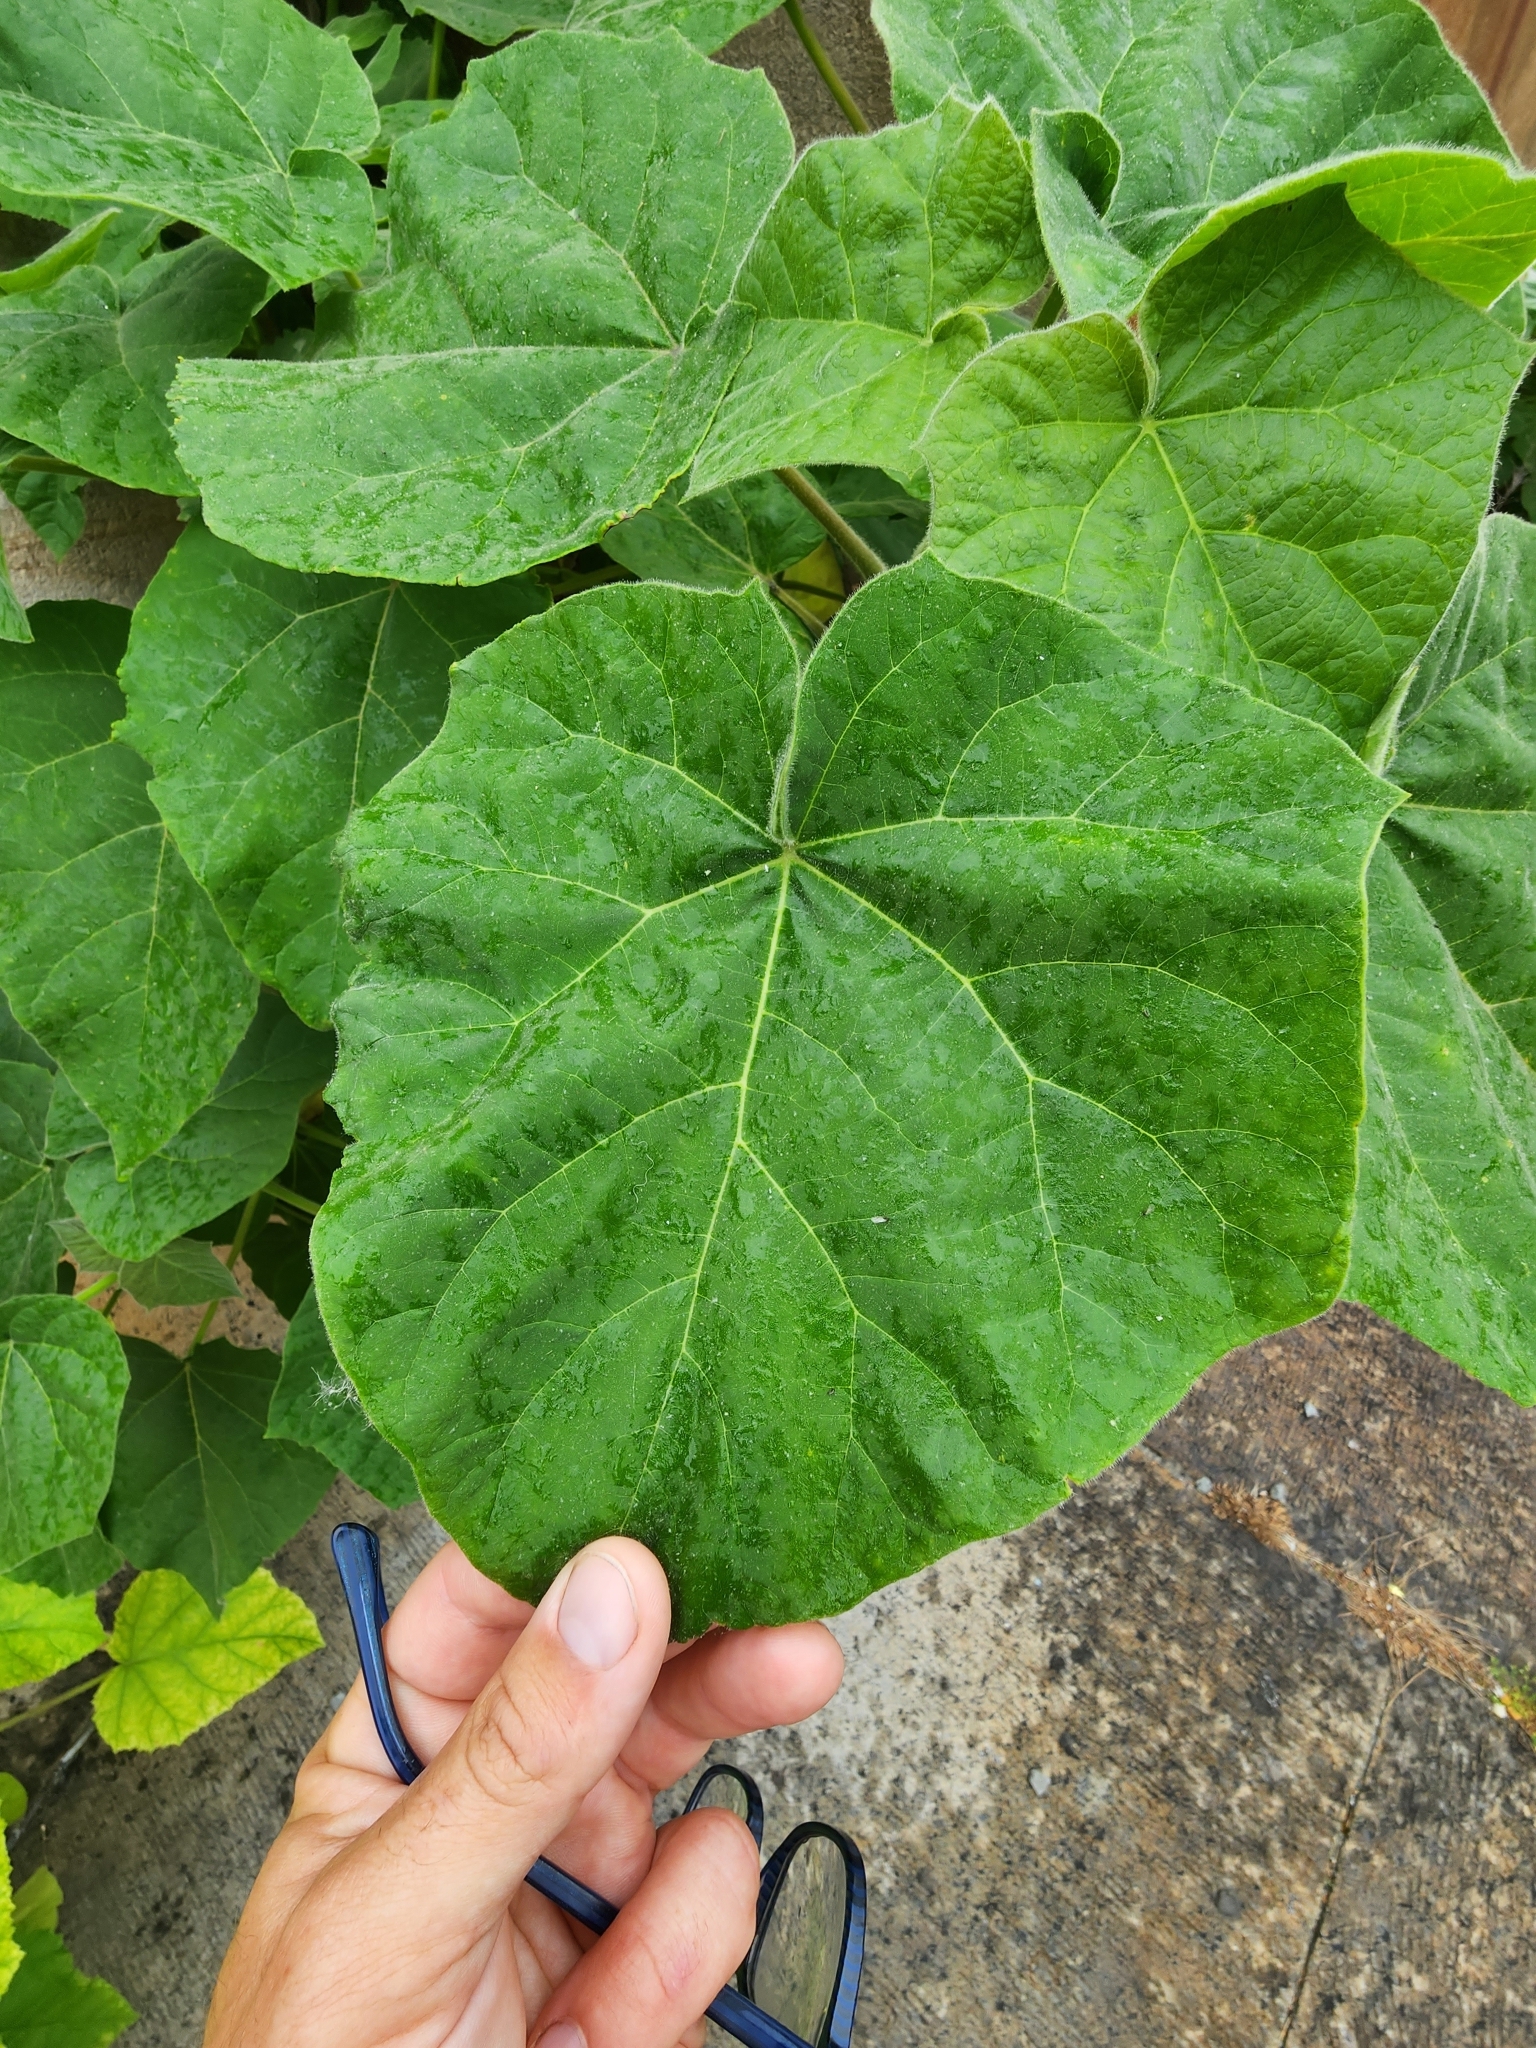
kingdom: Plantae
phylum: Tracheophyta
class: Magnoliopsida
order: Lamiales
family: Paulowniaceae
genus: Paulownia
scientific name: Paulownia tomentosa
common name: Foxglove-tree
